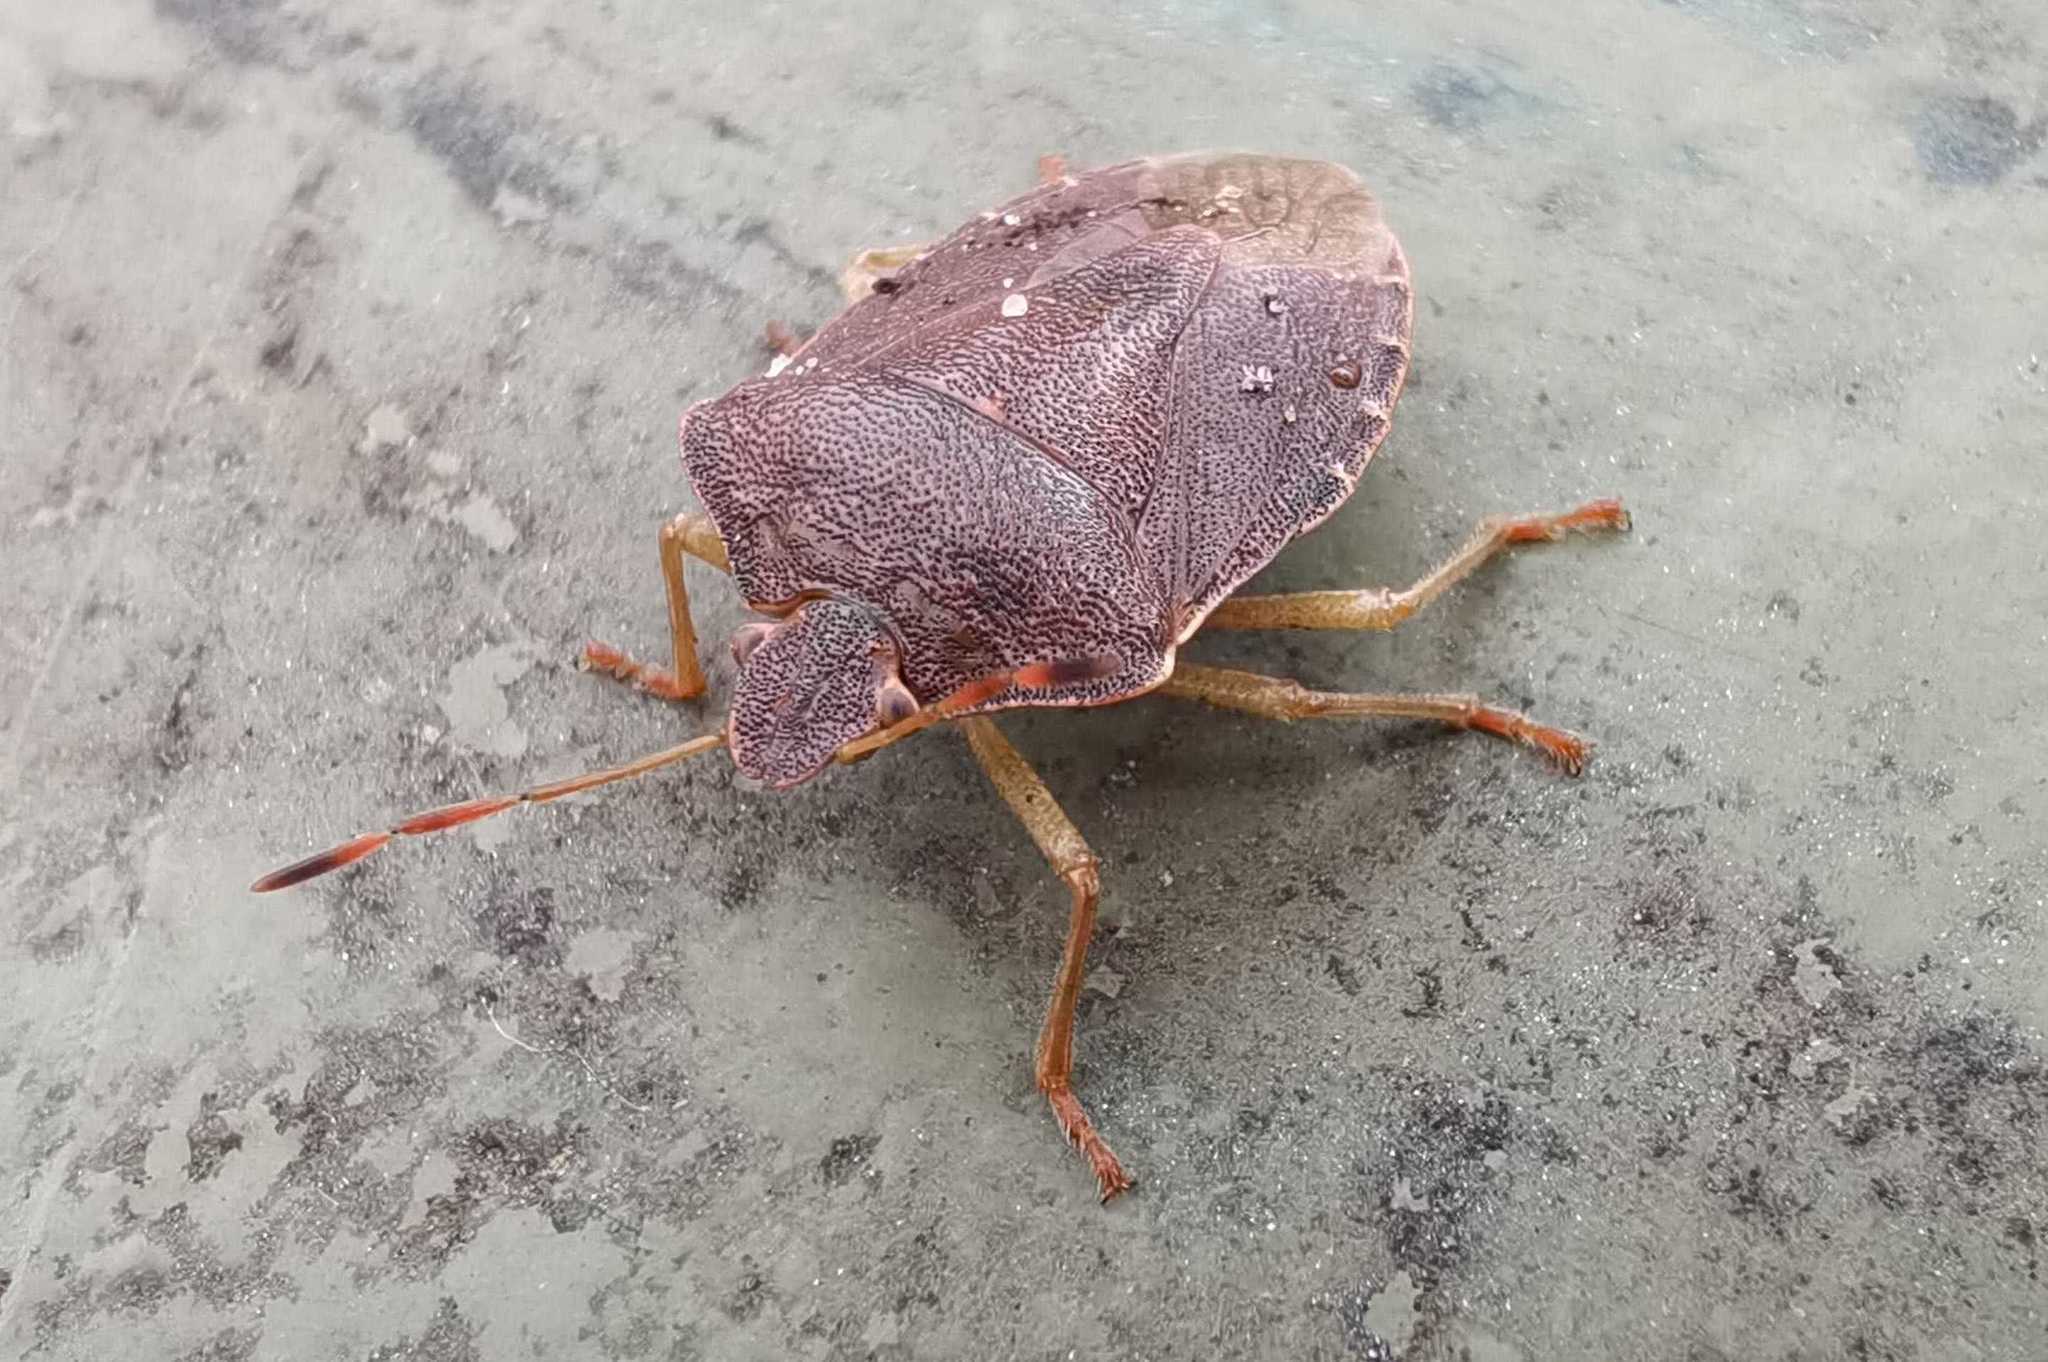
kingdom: Animalia
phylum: Arthropoda
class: Insecta
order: Hemiptera
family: Pentatomidae
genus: Palomena
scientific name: Palomena prasina
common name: Green shieldbug
